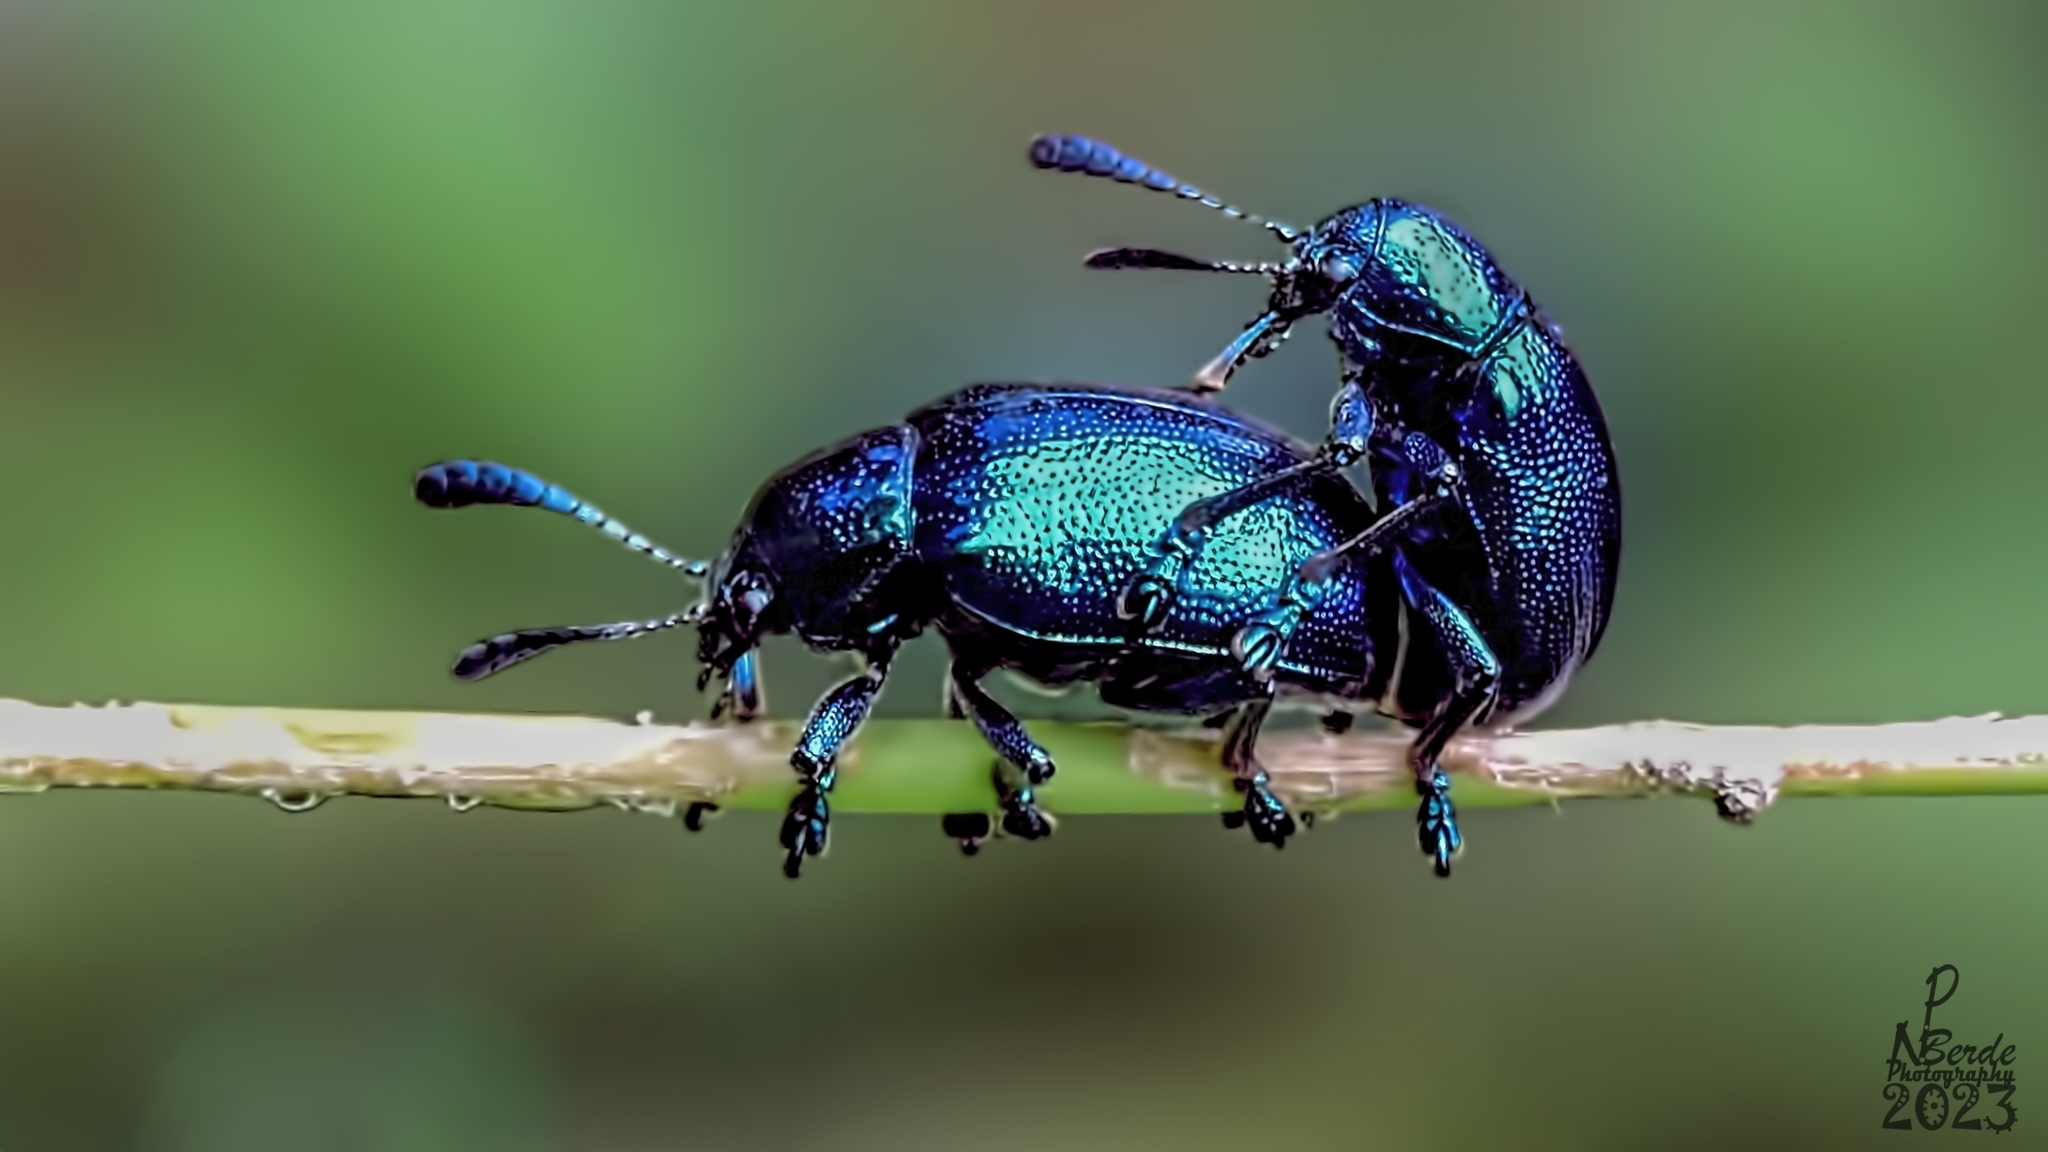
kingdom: Animalia
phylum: Arthropoda
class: Insecta
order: Coleoptera
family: Chrysomelidae
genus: Platycorynus
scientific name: Platycorynus
